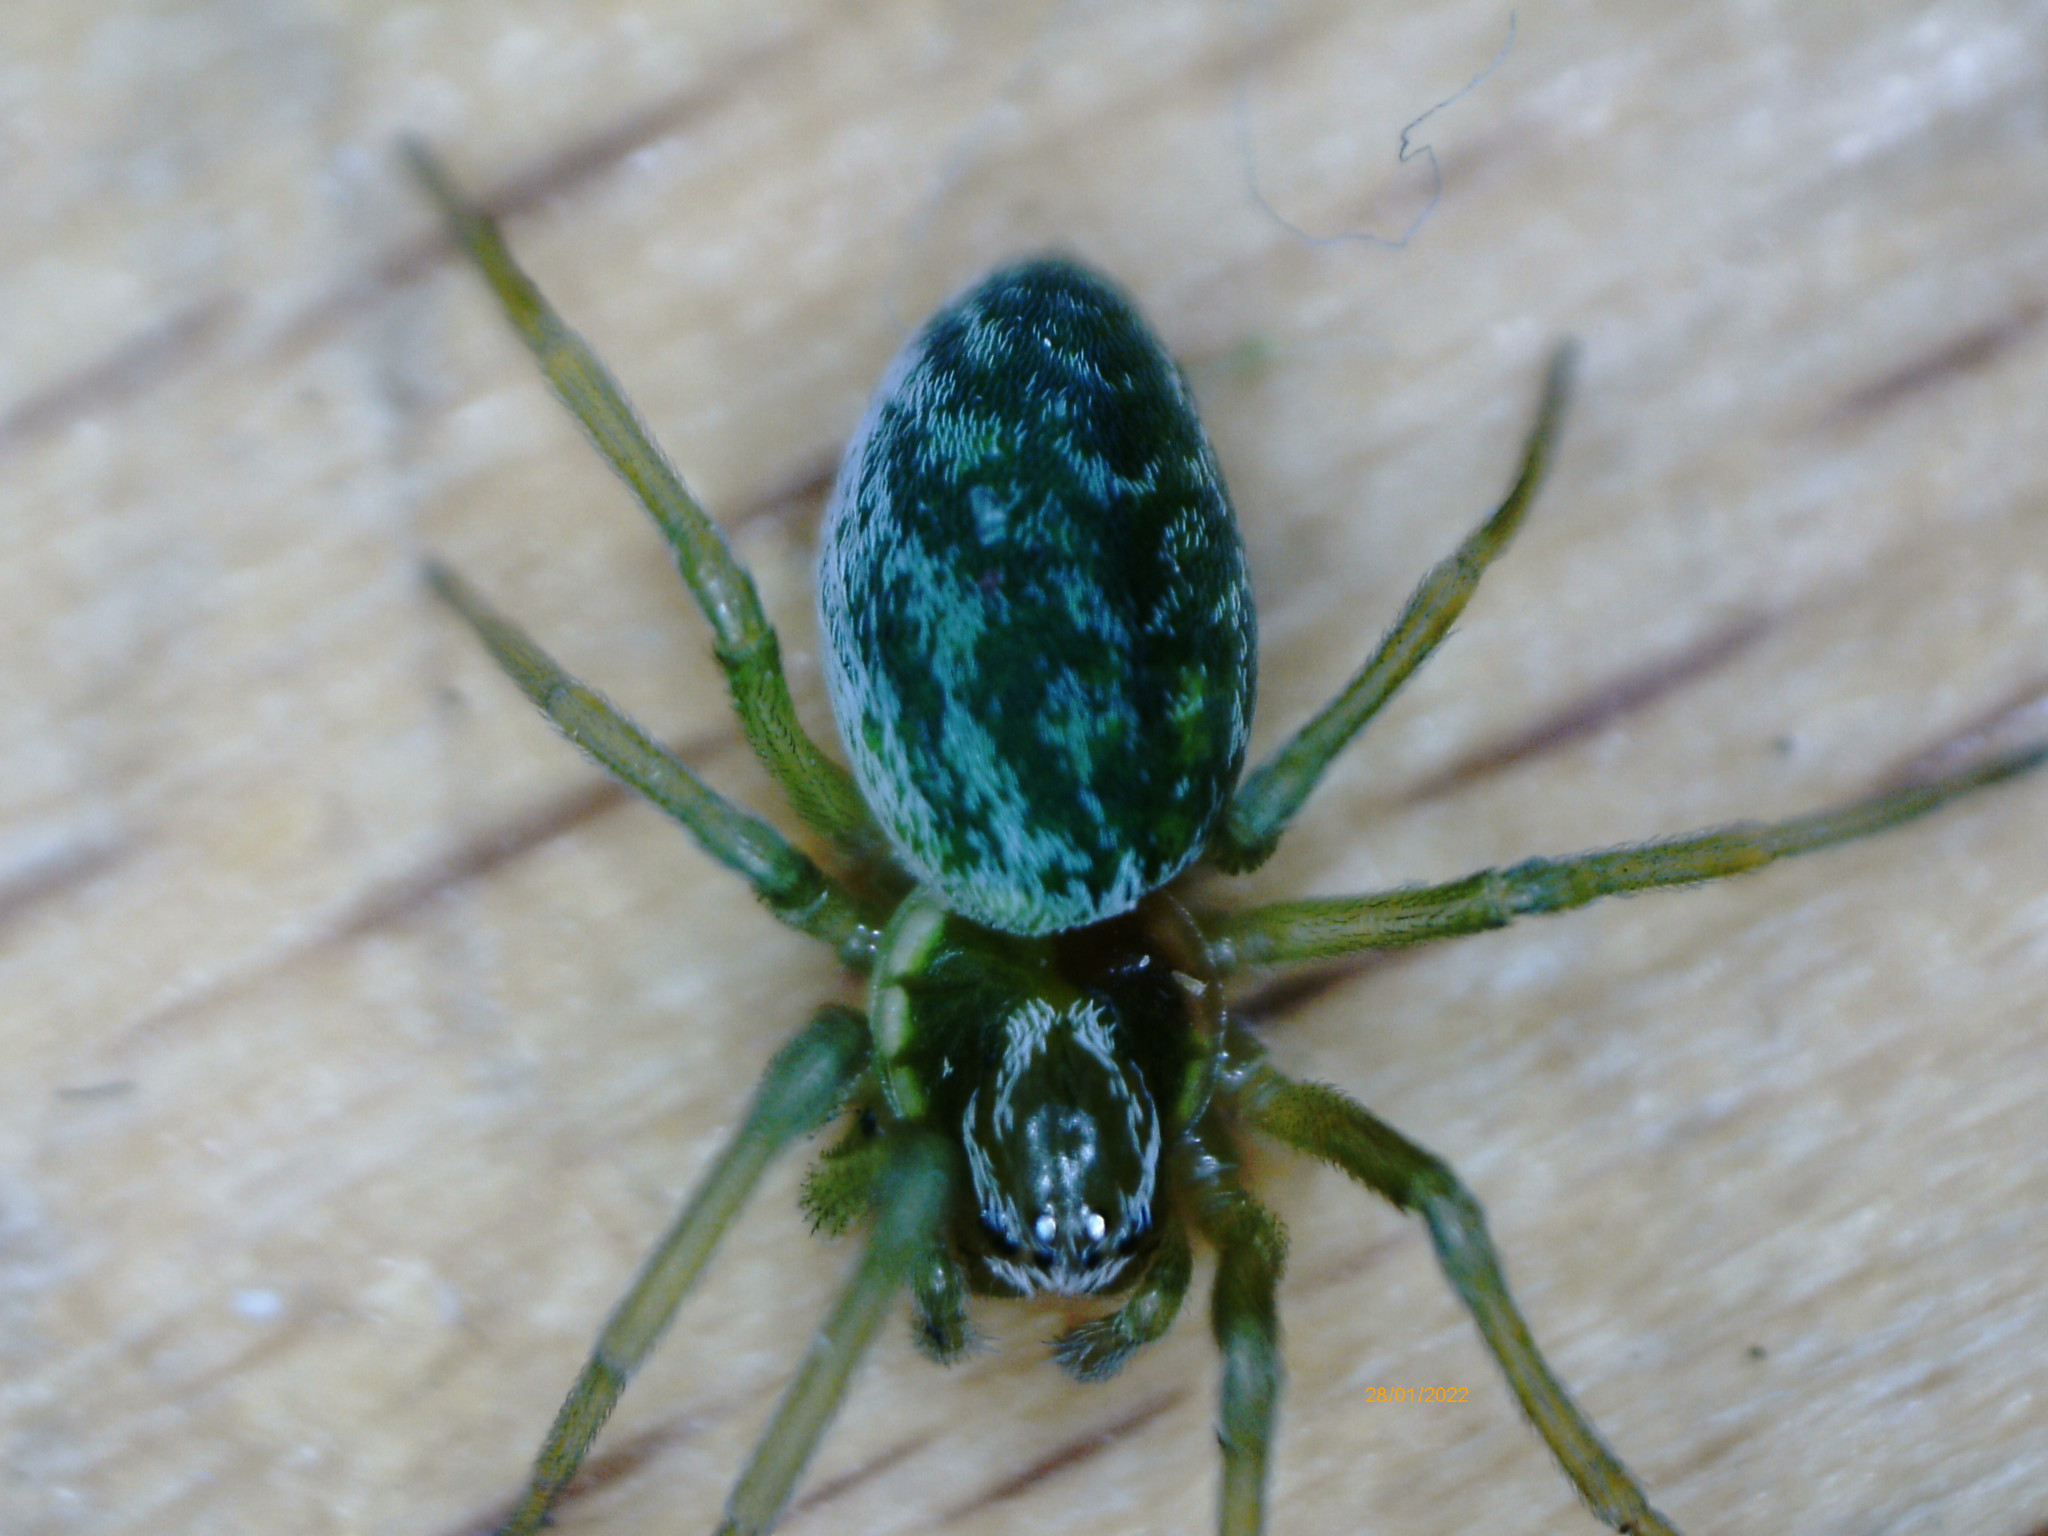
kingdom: Animalia
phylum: Arthropoda
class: Arachnida
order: Araneae
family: Dictynidae
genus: Nigma
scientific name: Nigma walckenaeri
